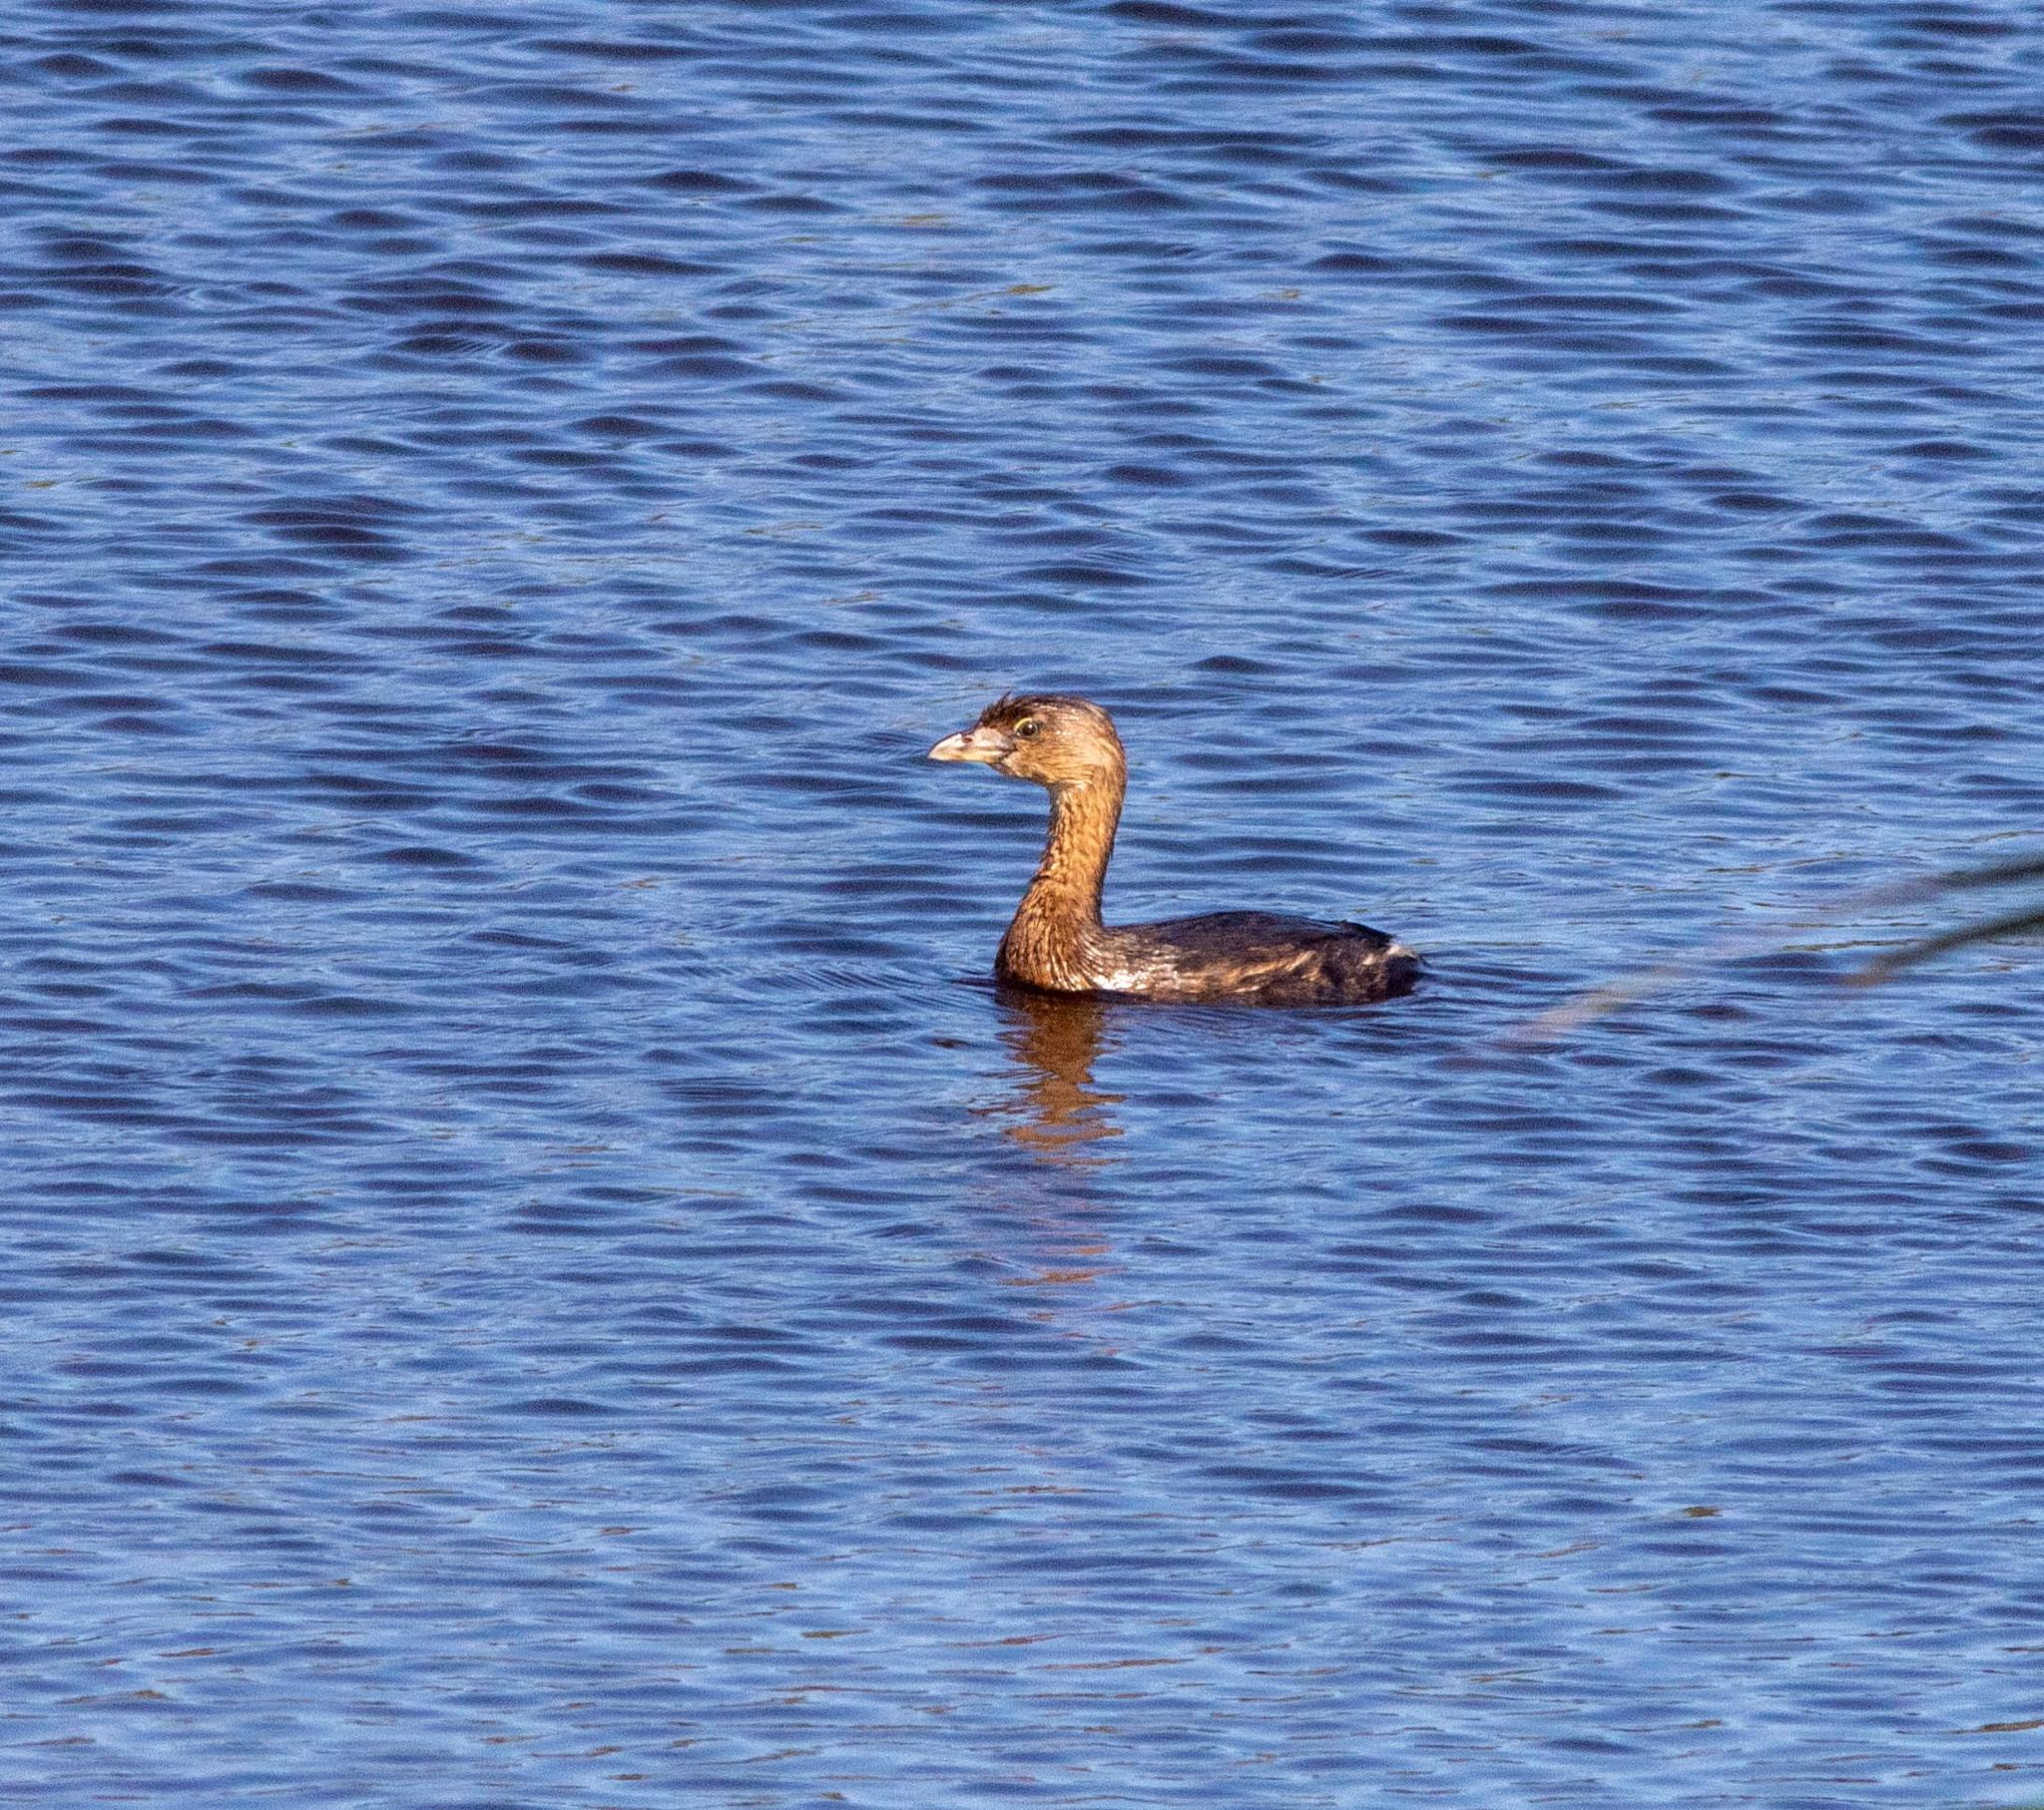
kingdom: Animalia
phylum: Chordata
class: Aves
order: Podicipediformes
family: Podicipedidae
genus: Podilymbus
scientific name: Podilymbus podiceps
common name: Pied-billed grebe
